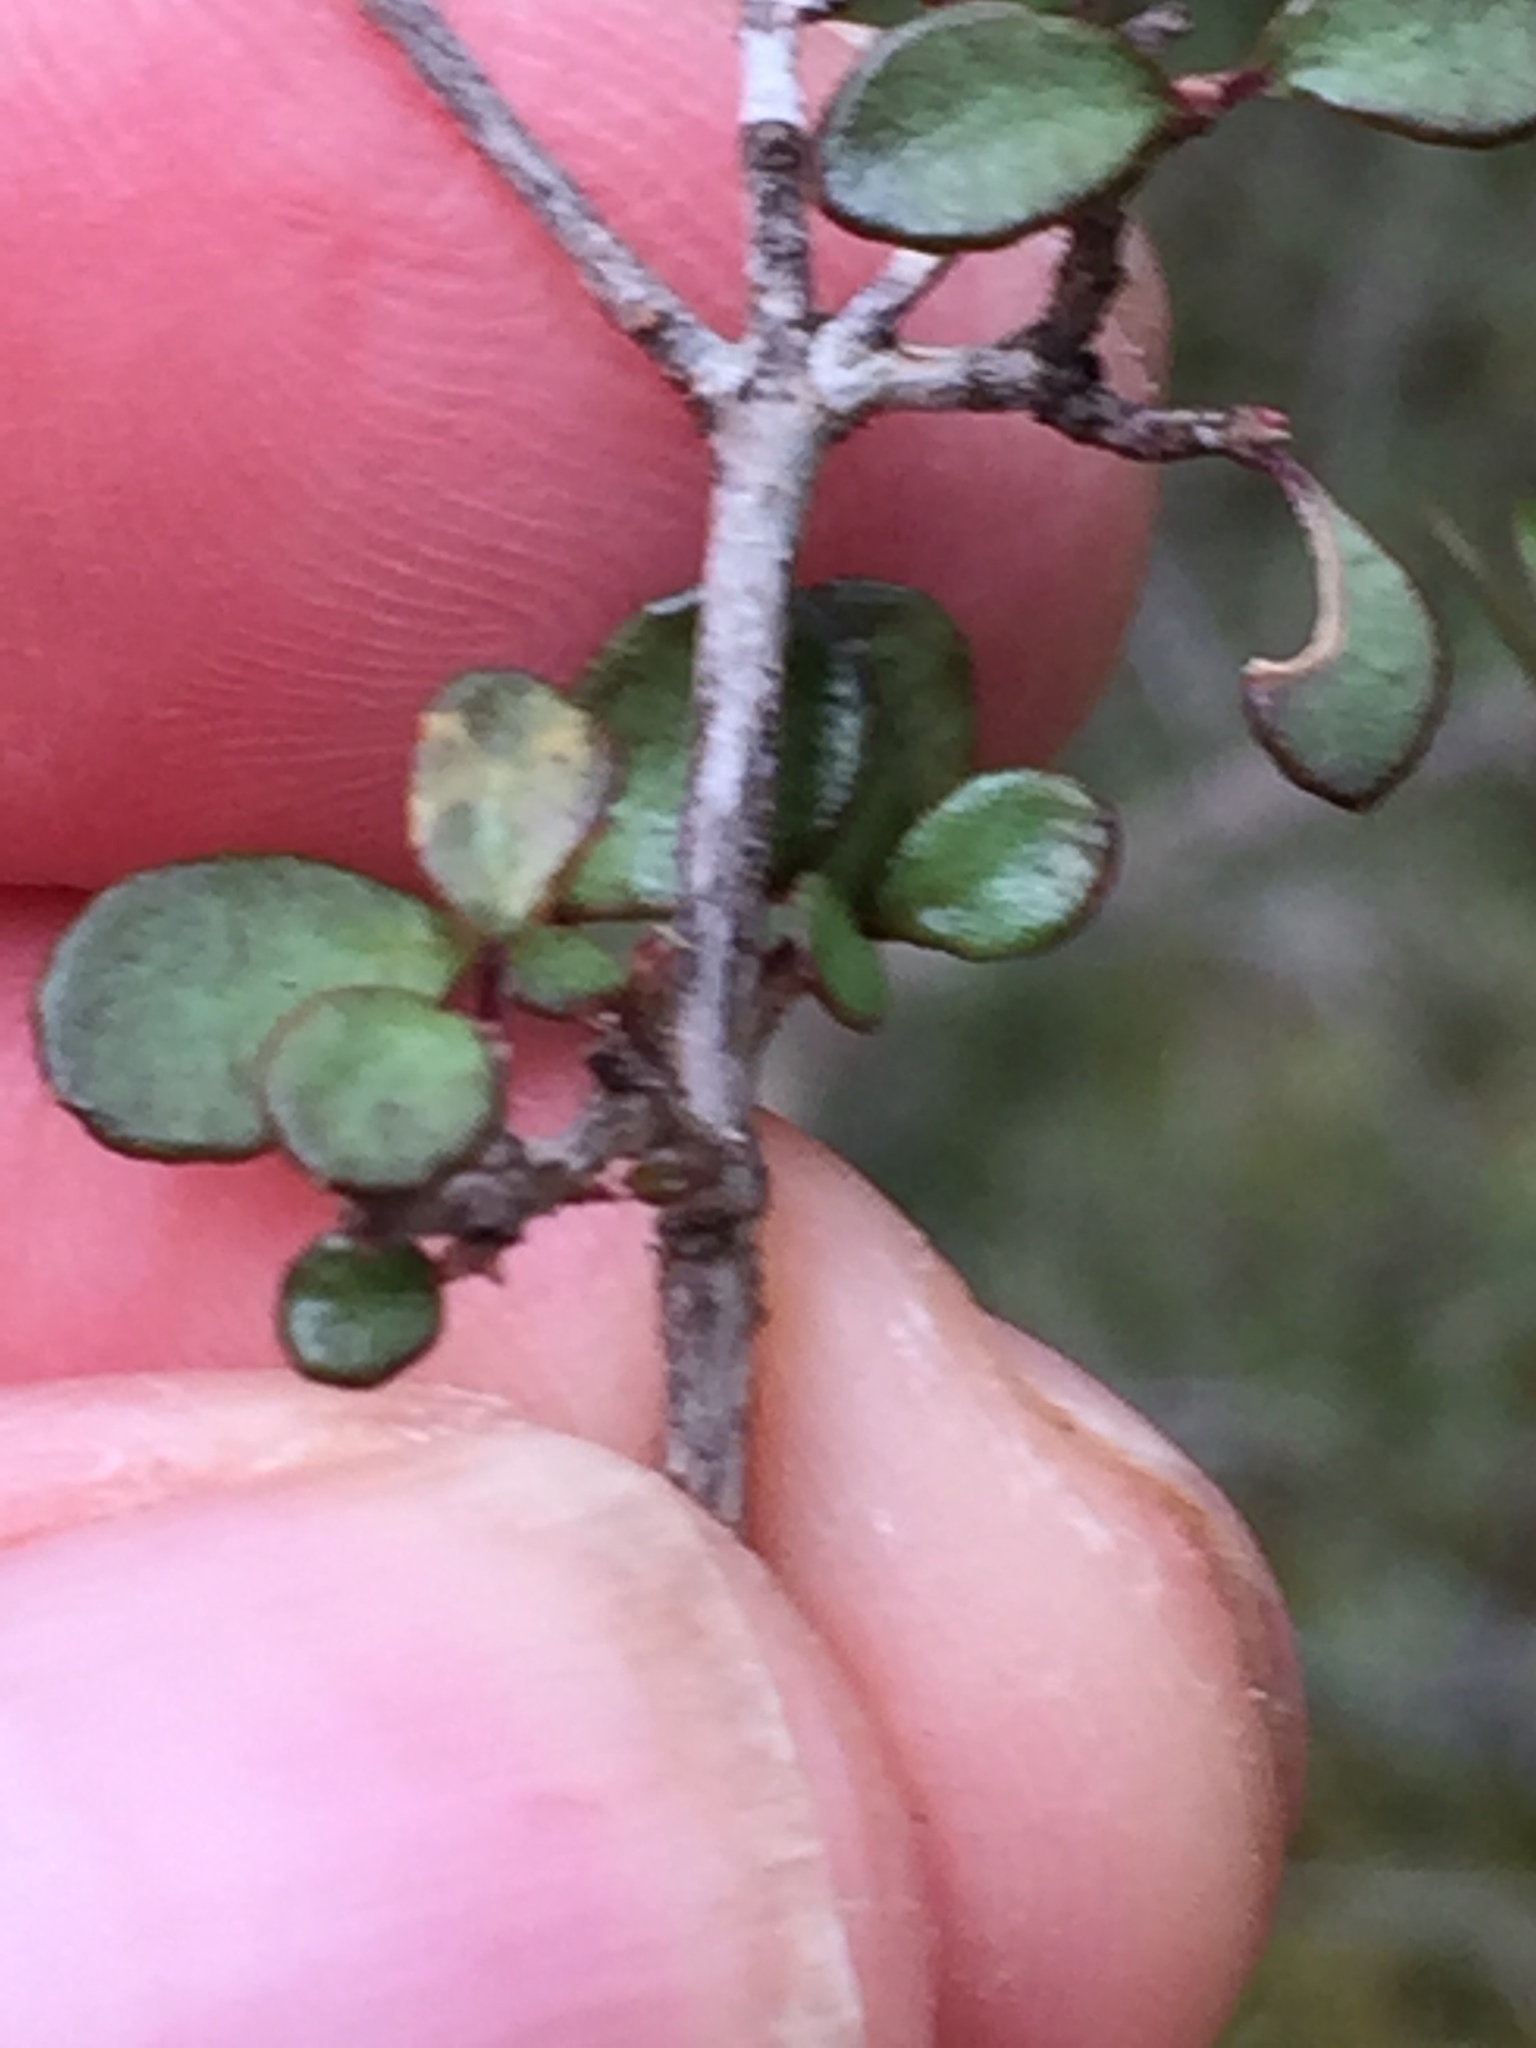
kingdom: Plantae
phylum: Tracheophyta
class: Magnoliopsida
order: Myrtales
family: Myrtaceae
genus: Neomyrtus
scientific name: Neomyrtus pedunculata
